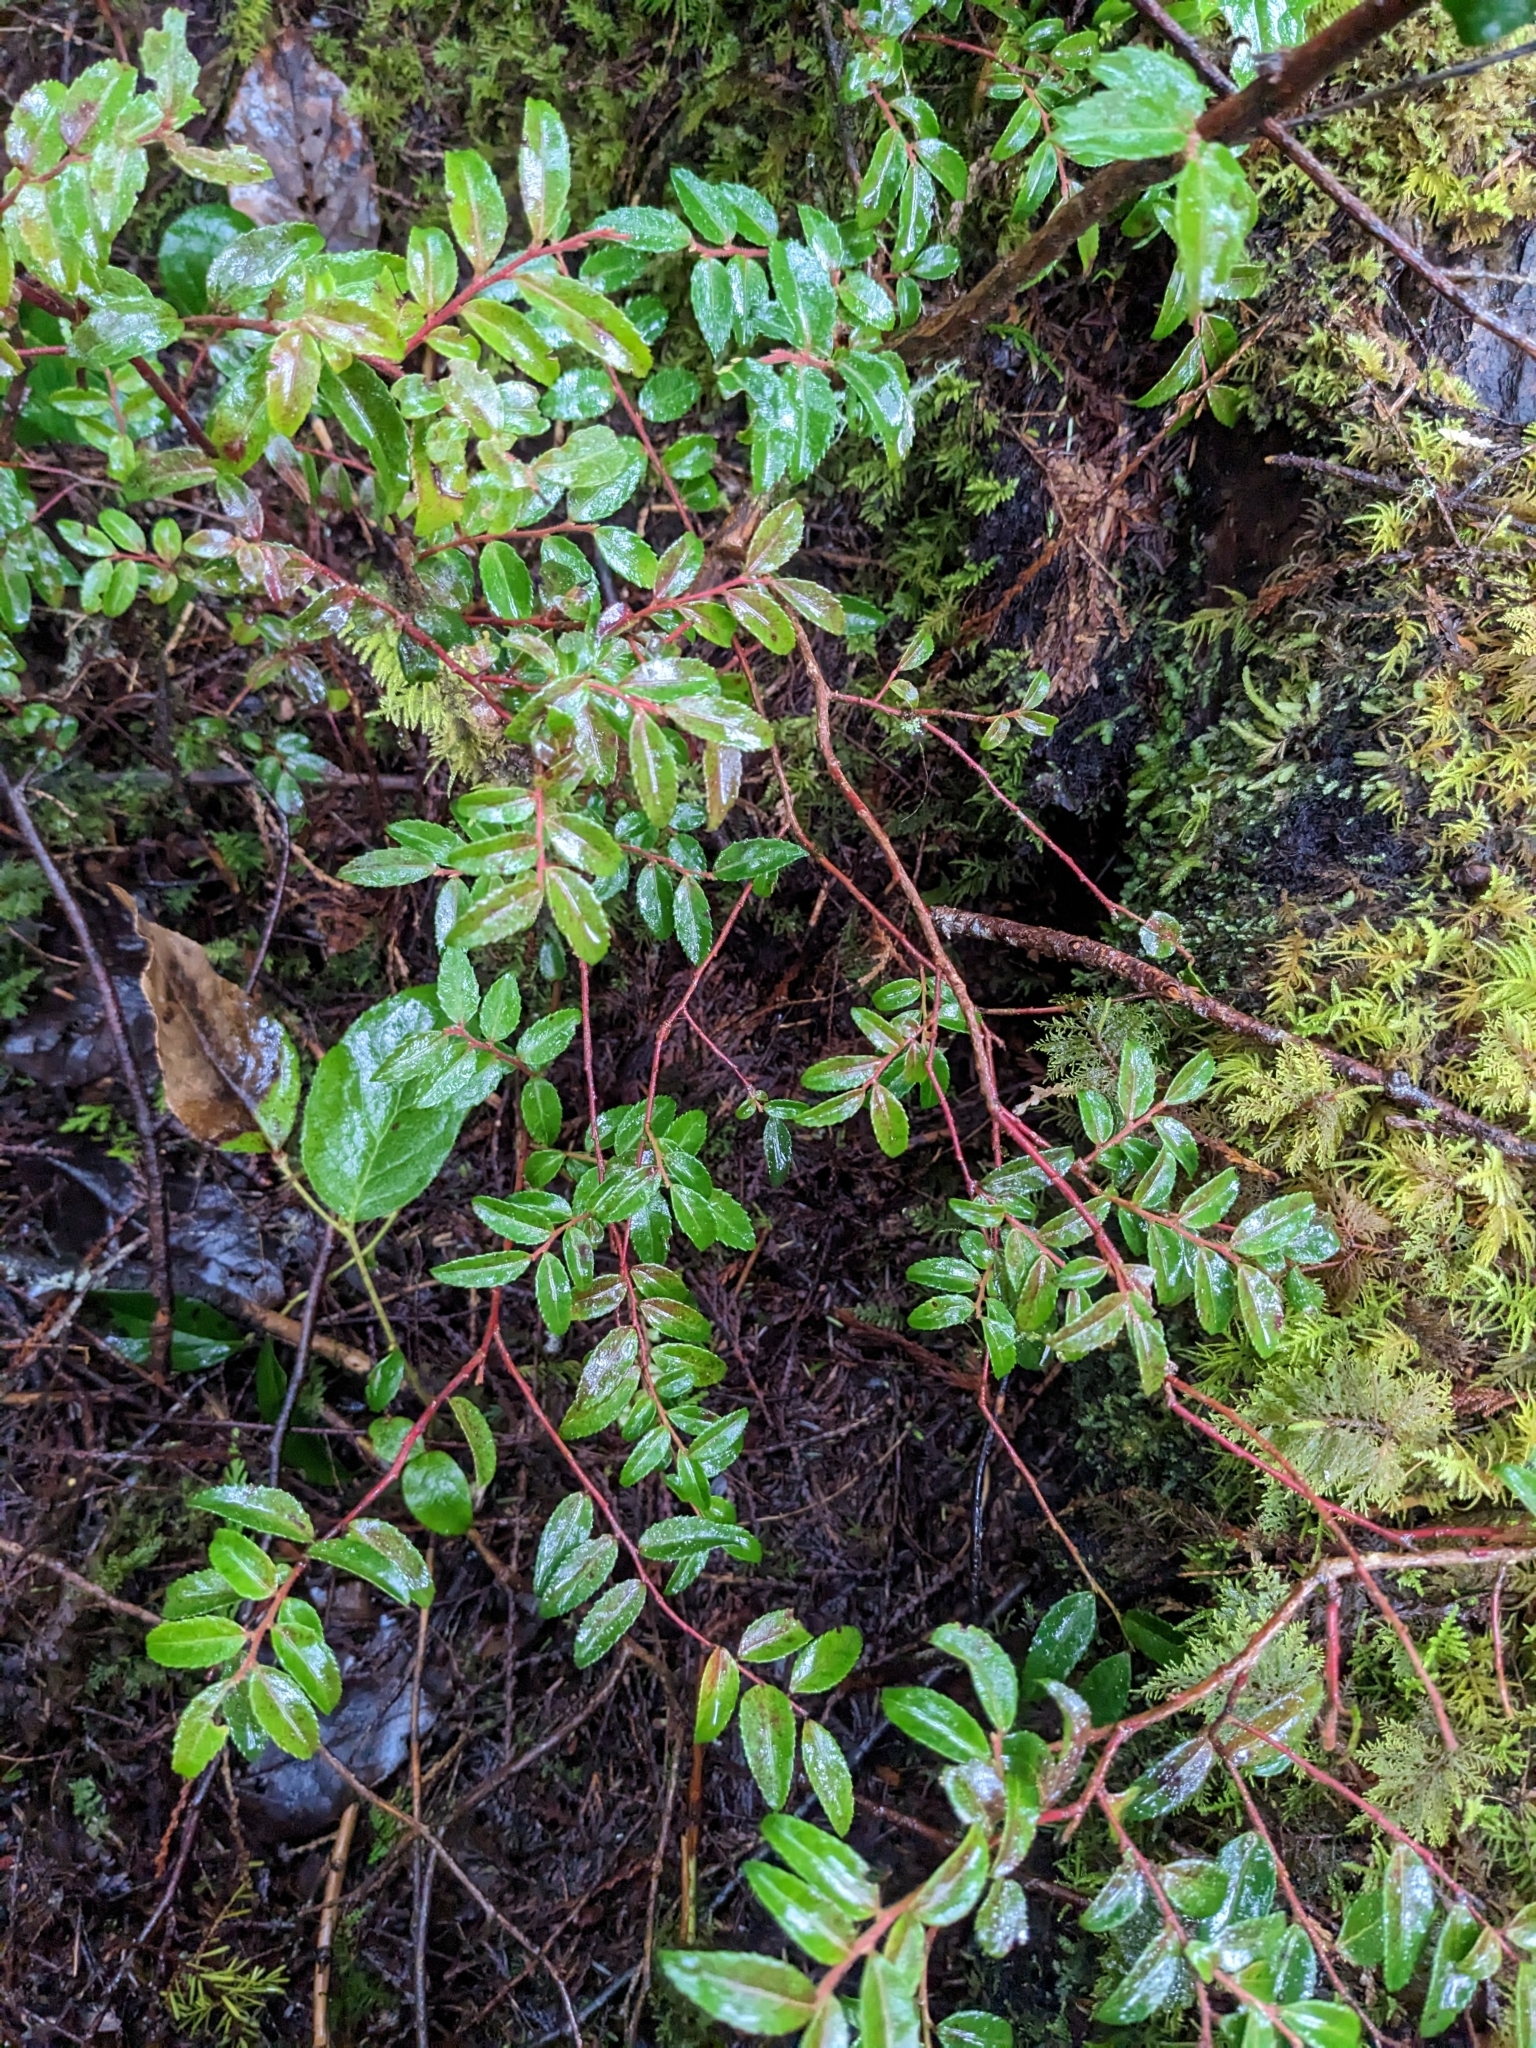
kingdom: Plantae
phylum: Tracheophyta
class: Magnoliopsida
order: Ericales
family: Ericaceae
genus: Vaccinium
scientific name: Vaccinium ovatum
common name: California-huckleberry
